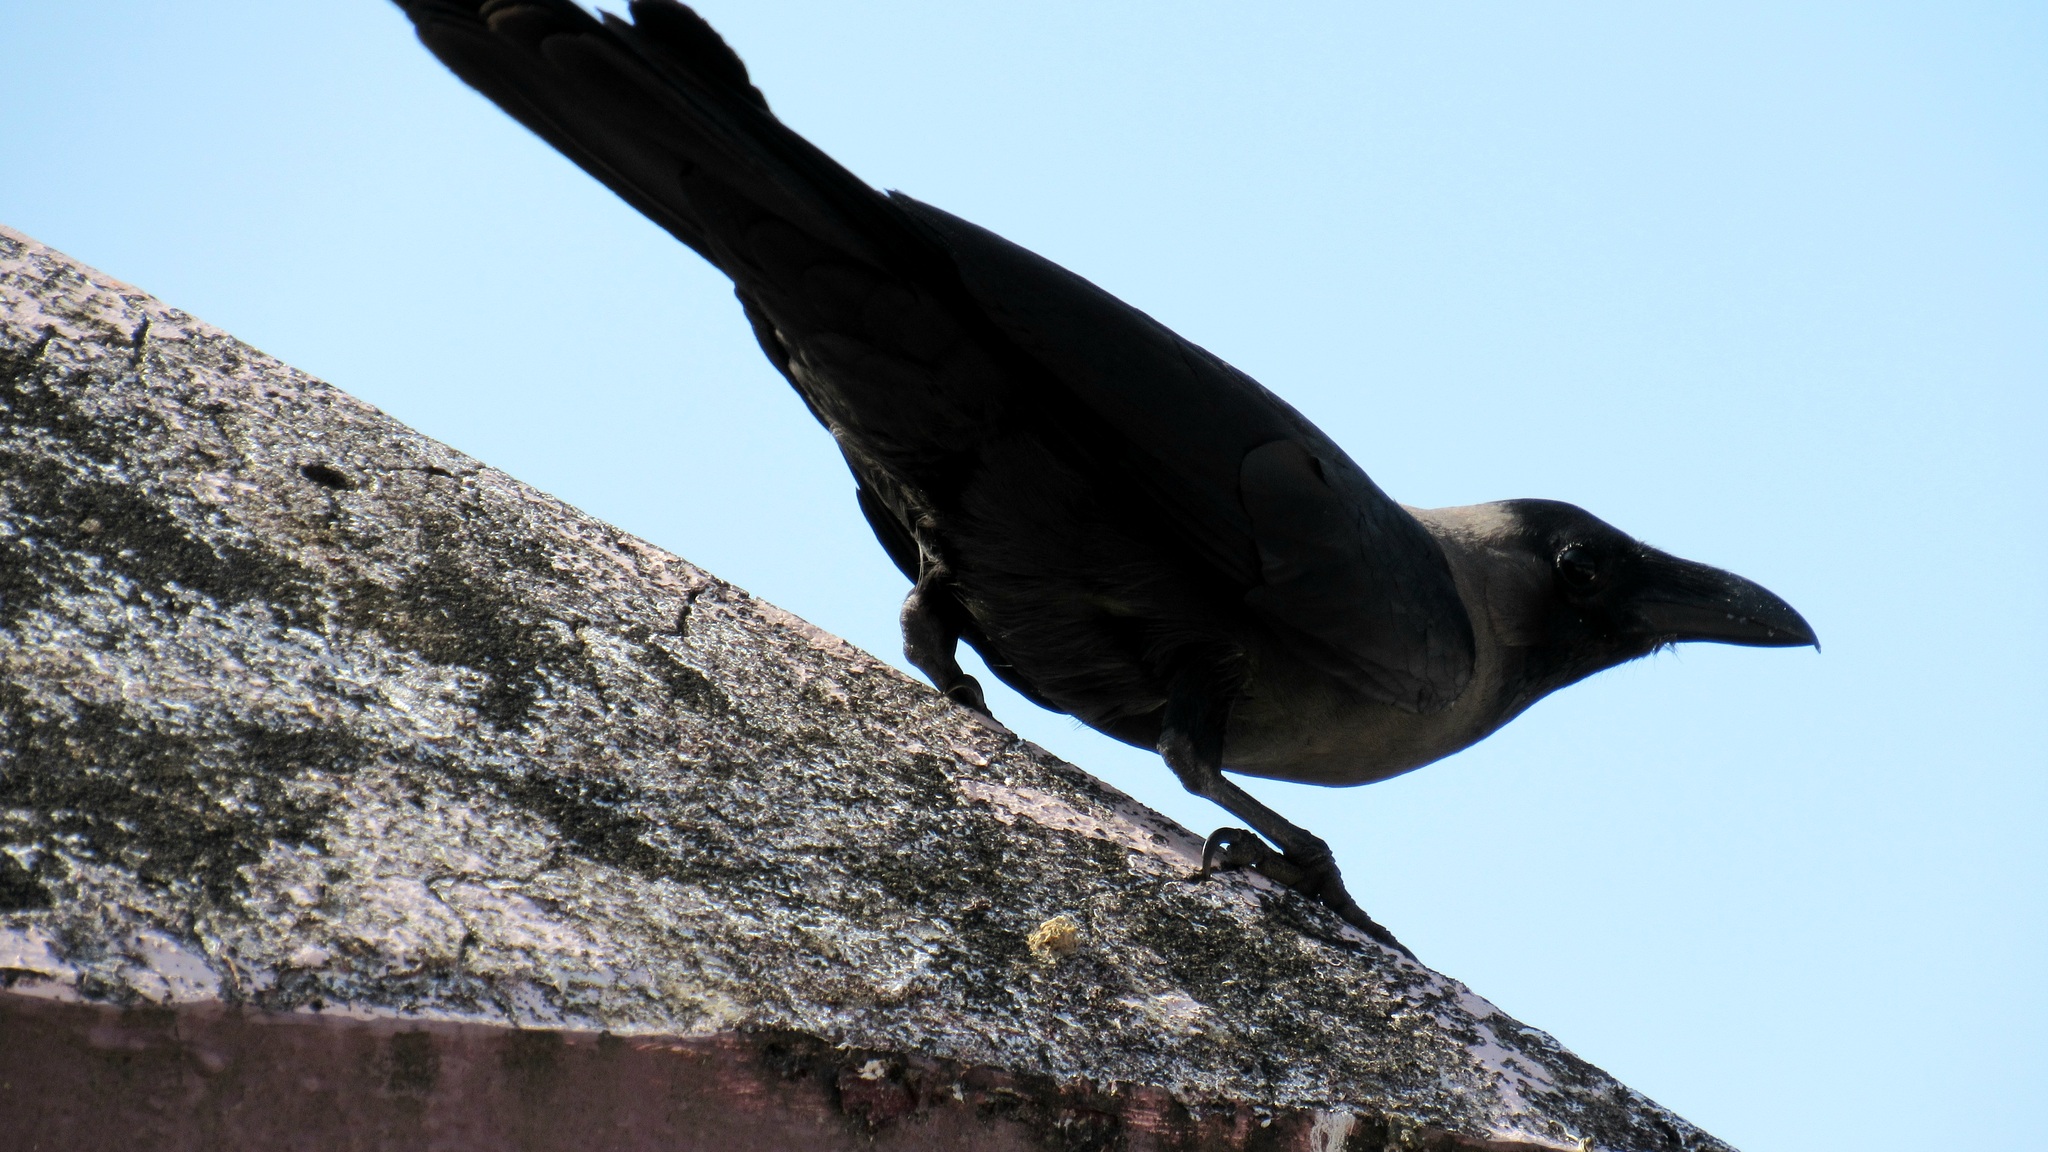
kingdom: Animalia
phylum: Chordata
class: Aves
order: Passeriformes
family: Corvidae
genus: Corvus
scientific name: Corvus splendens
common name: House crow
